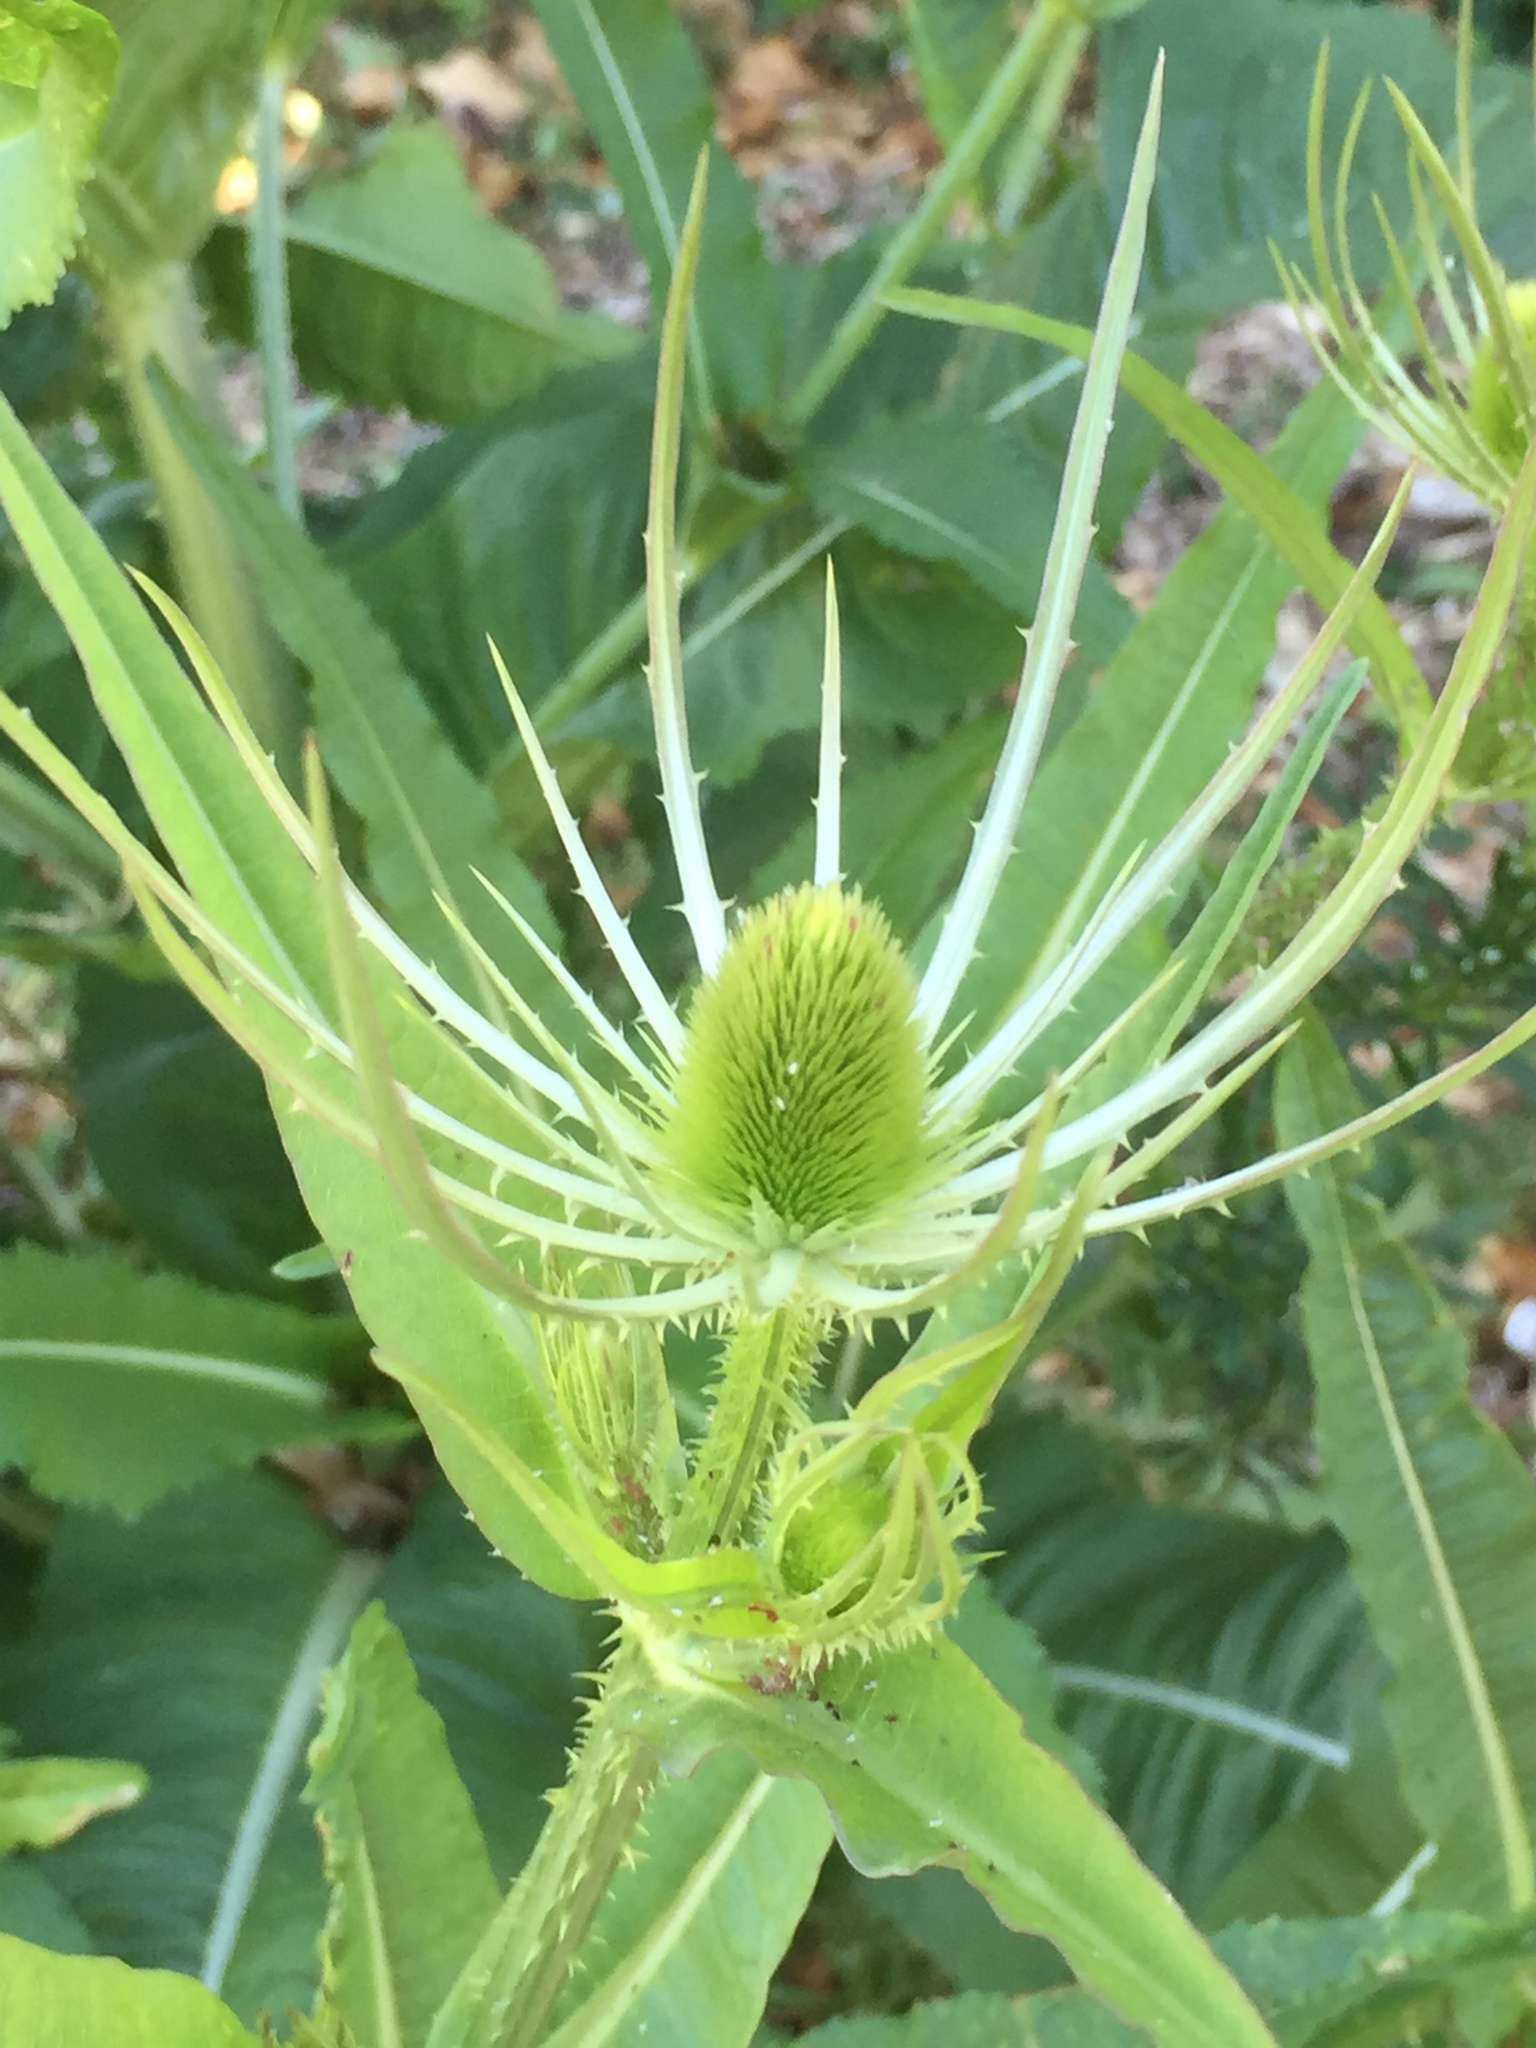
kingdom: Plantae
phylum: Tracheophyta
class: Magnoliopsida
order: Dipsacales
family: Caprifoliaceae
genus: Dipsacus
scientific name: Dipsacus fullonum
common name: Teasel
